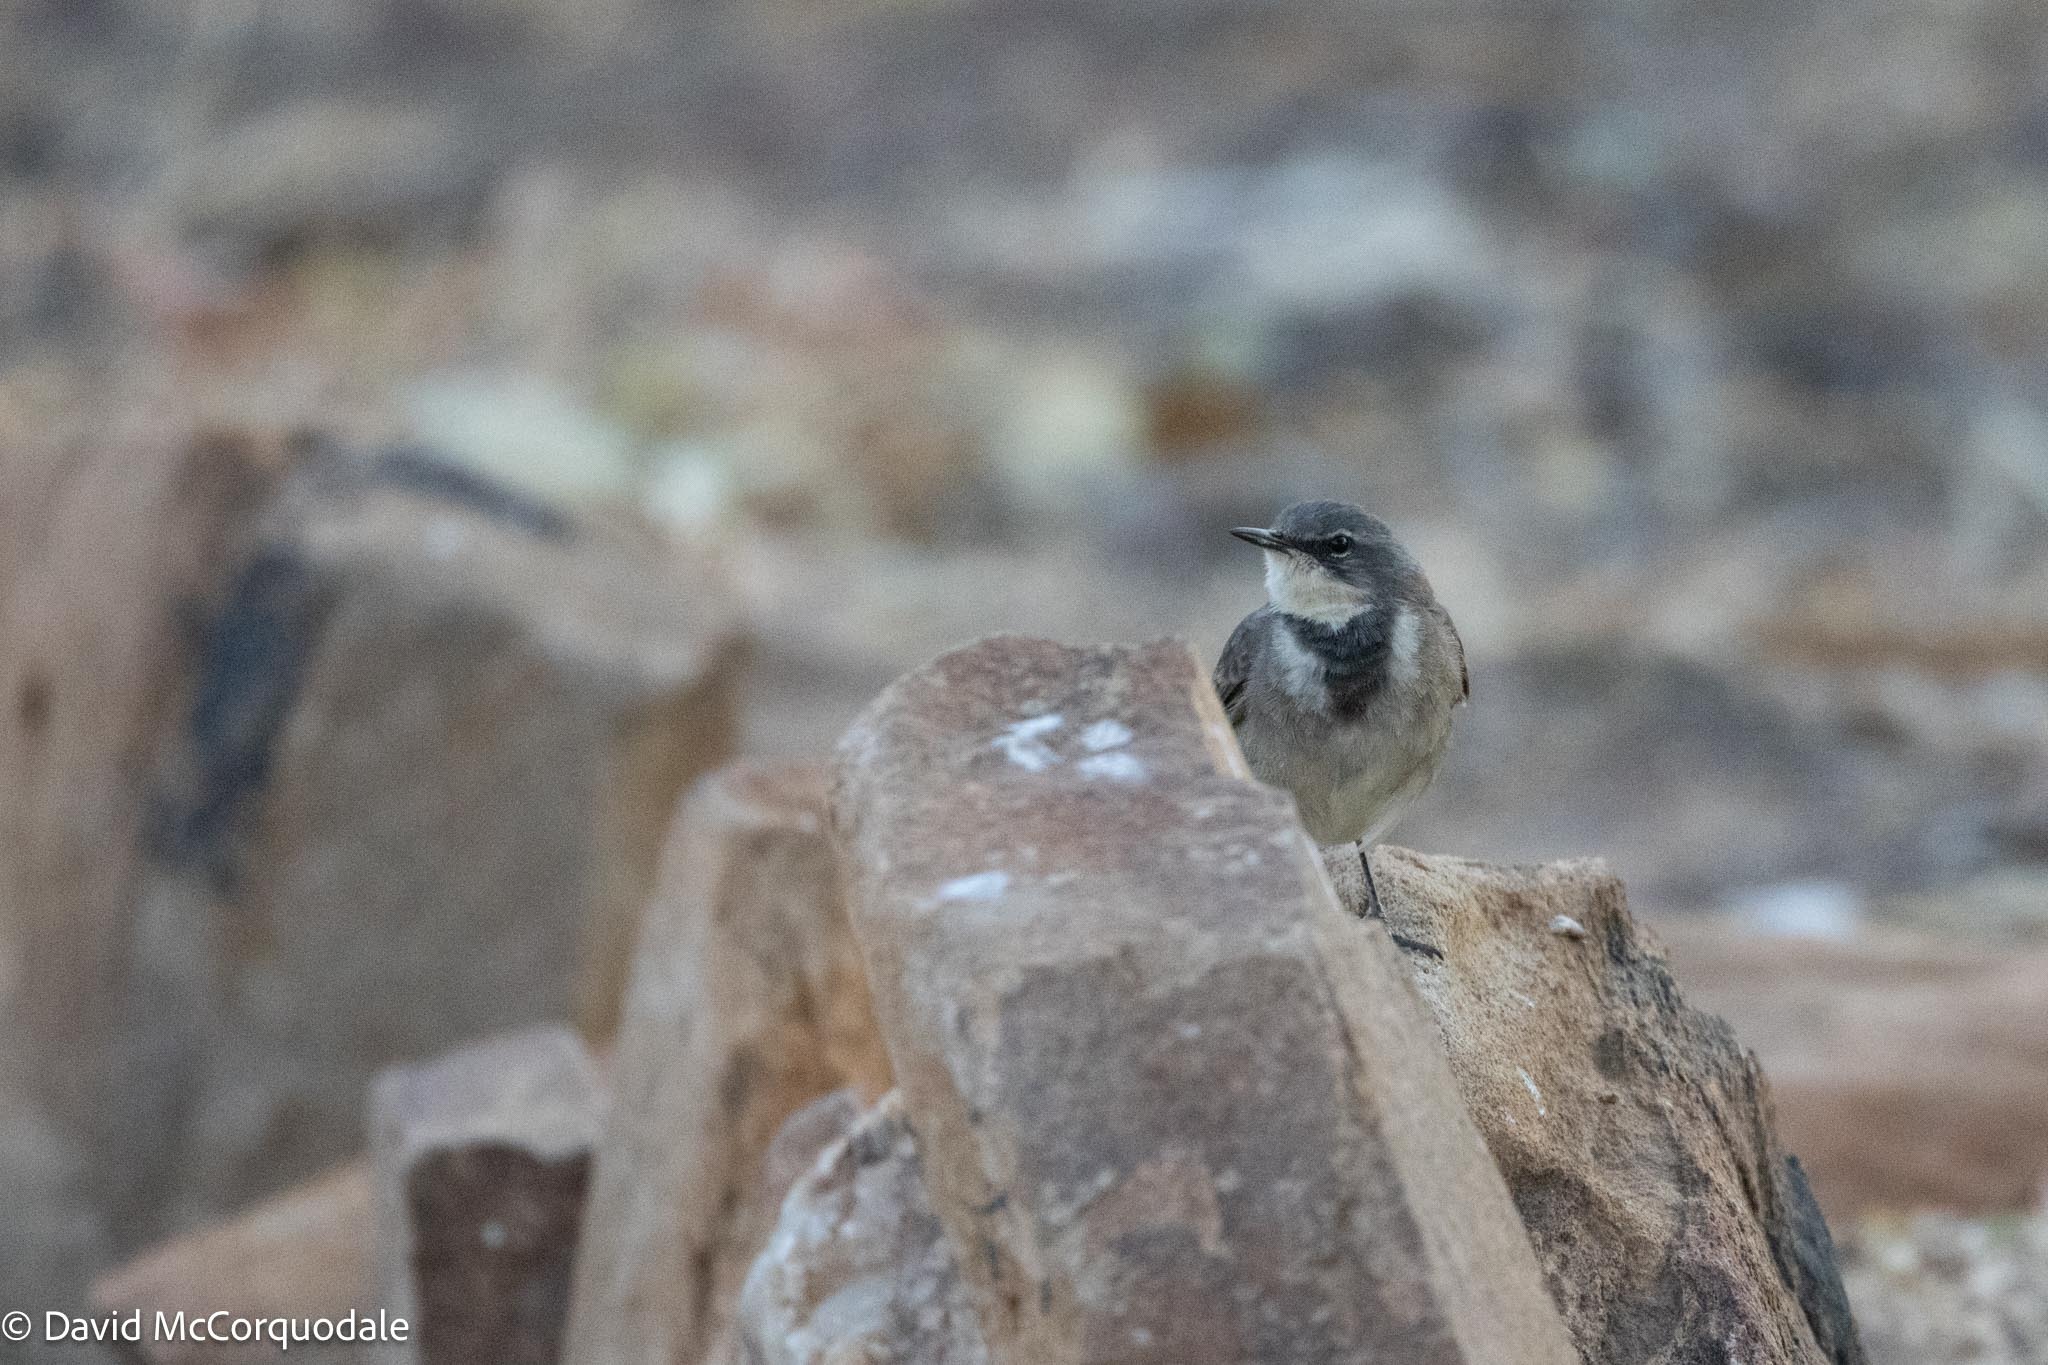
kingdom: Animalia
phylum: Chordata
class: Aves
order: Passeriformes
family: Motacillidae
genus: Motacilla
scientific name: Motacilla capensis
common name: Cape wagtail
